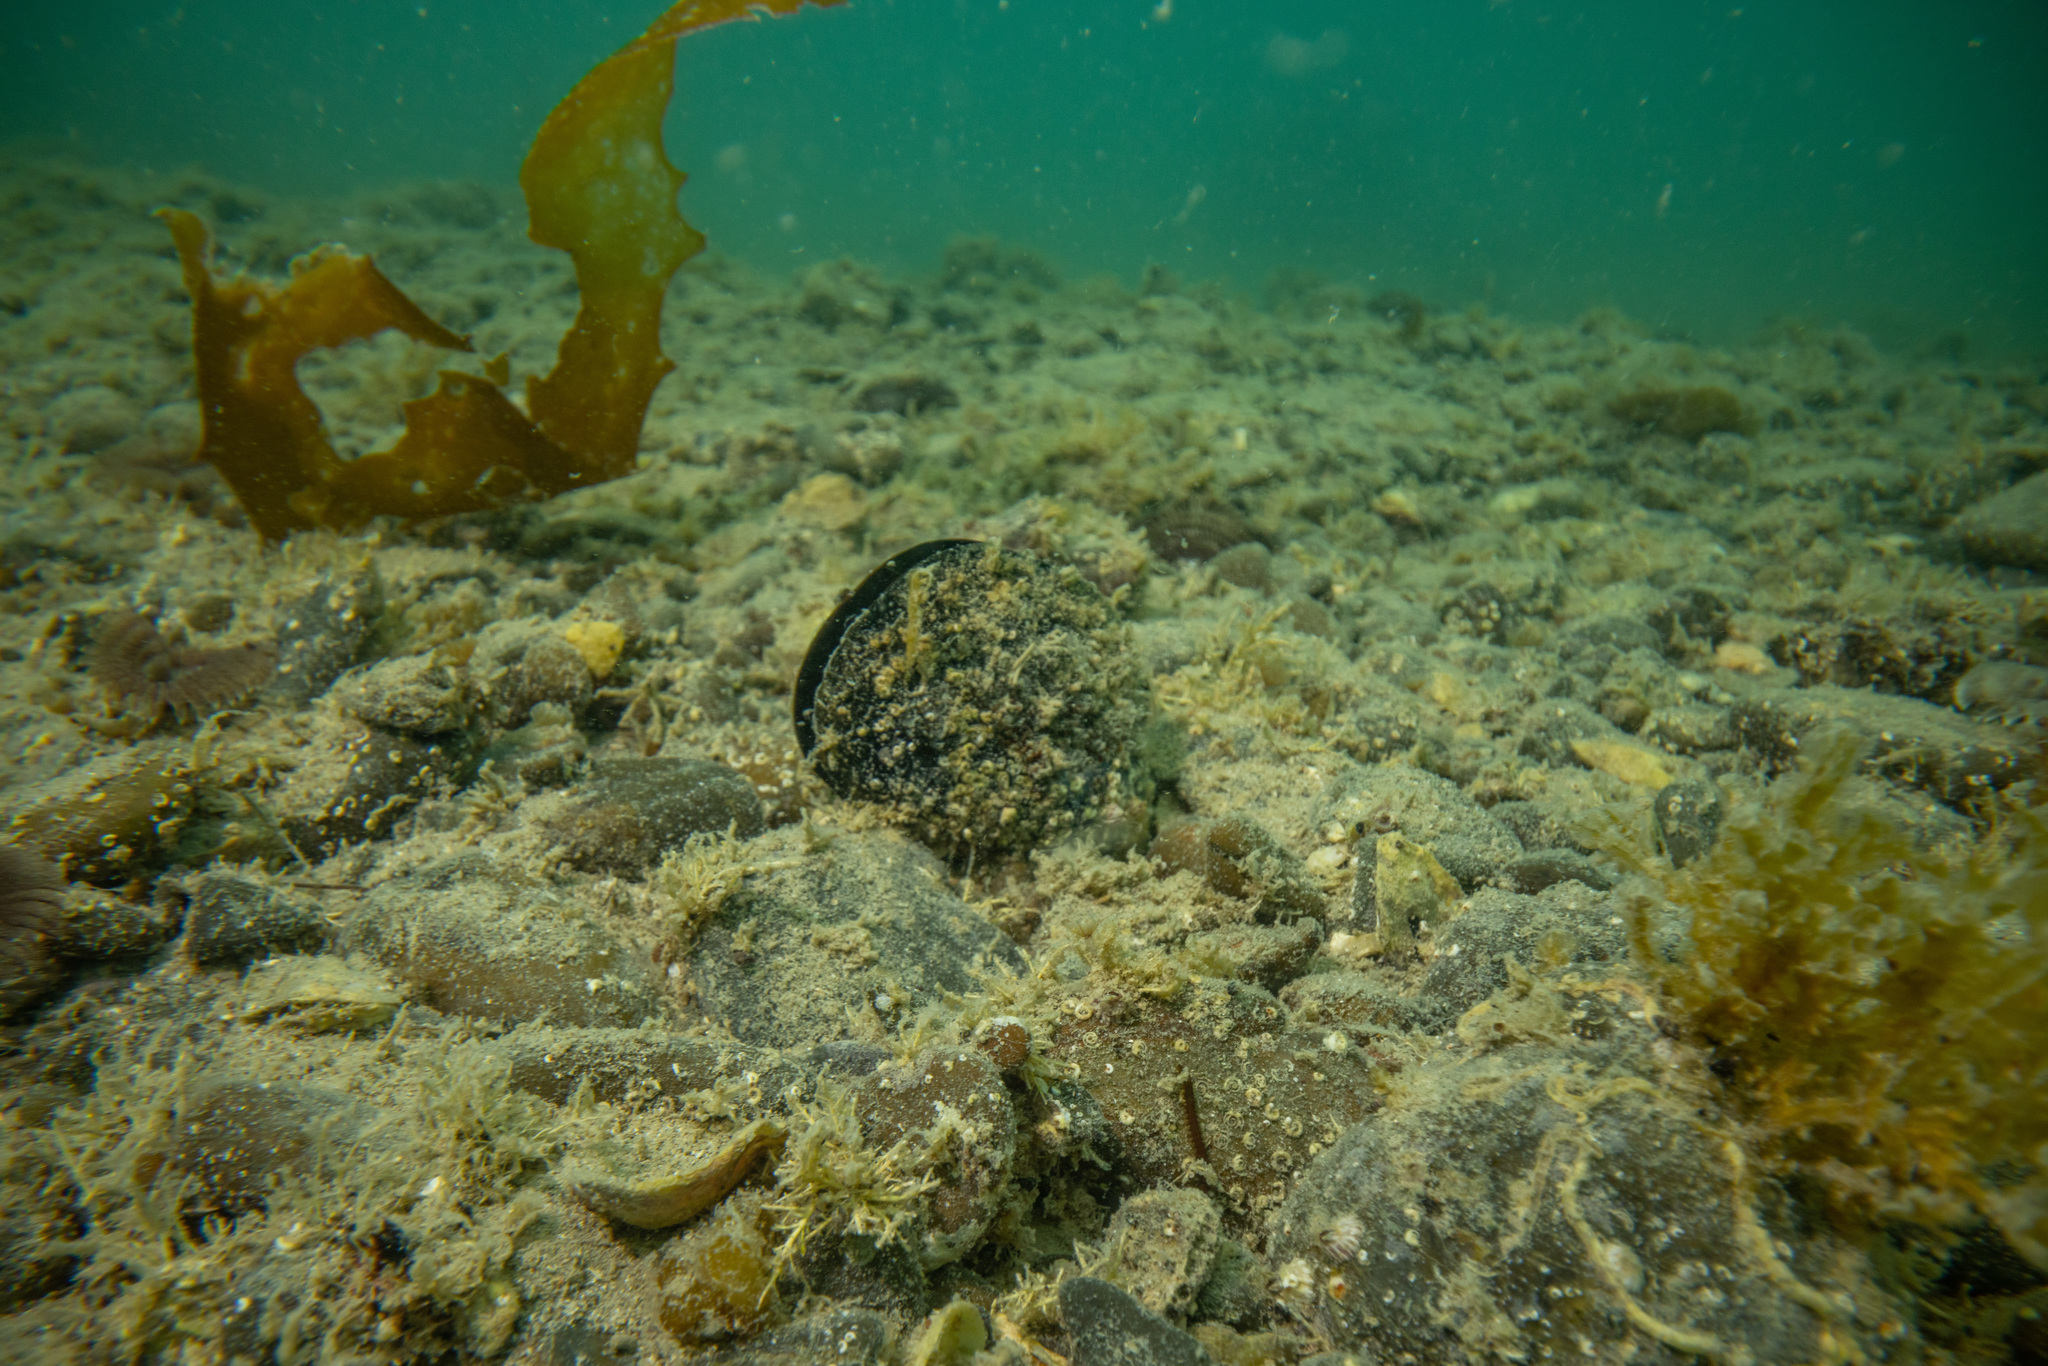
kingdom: Animalia
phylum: Mollusca
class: Bivalvia
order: Mytilida
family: Mytilidae
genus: Mytilus
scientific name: Mytilus planulatus
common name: Australian mussel
